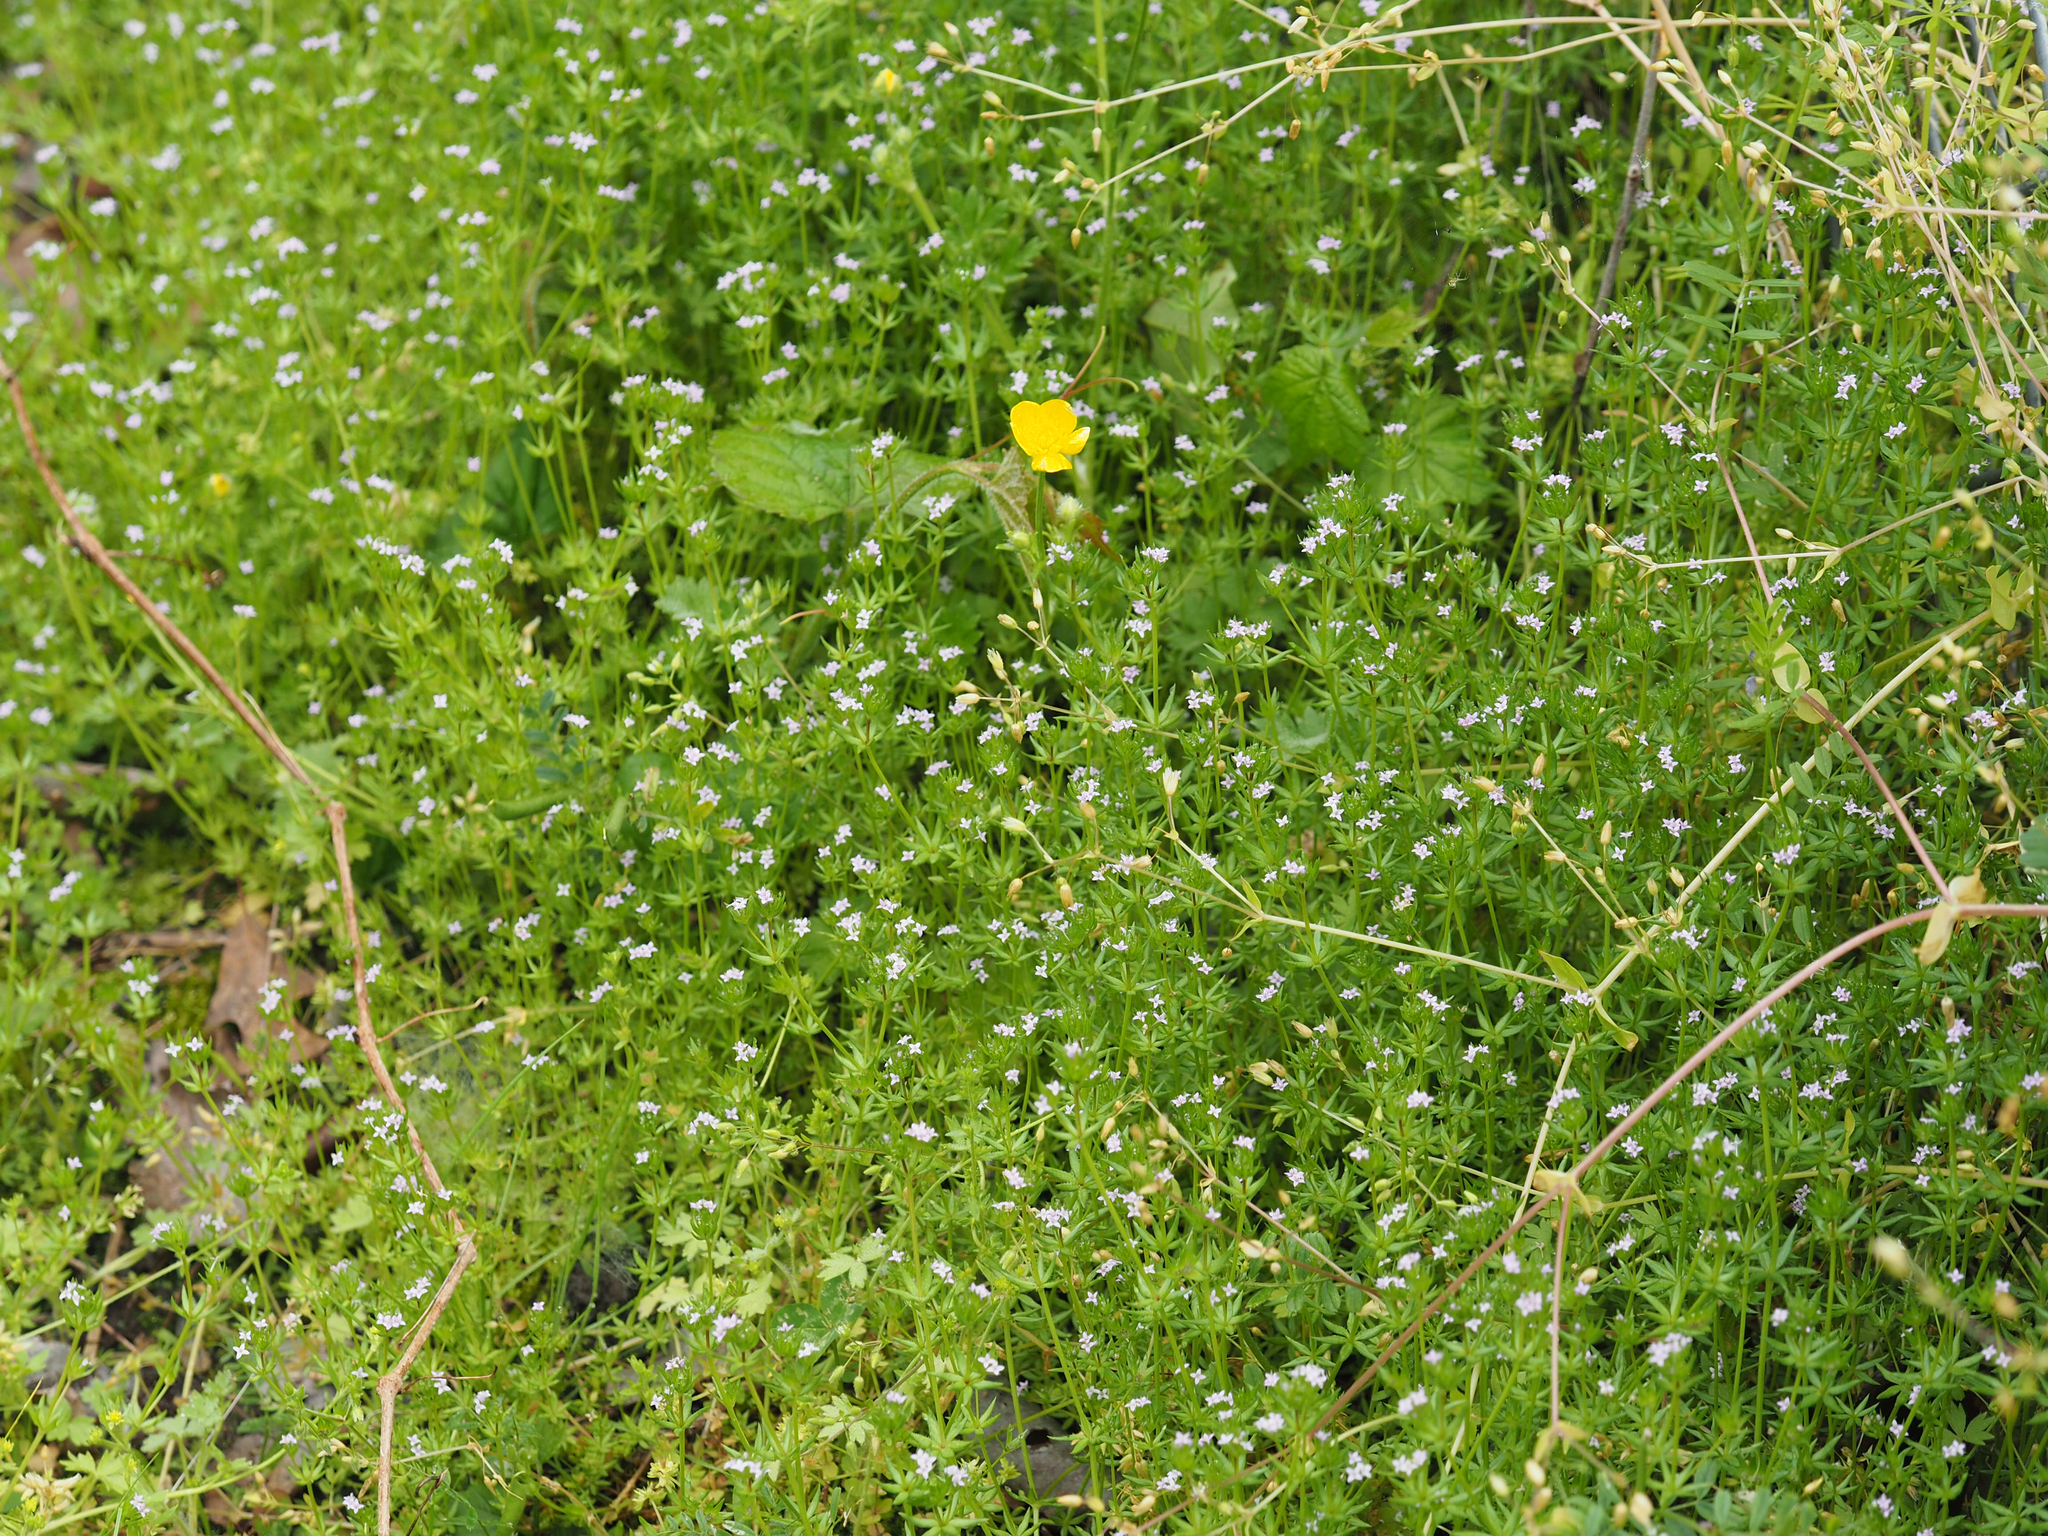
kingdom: Plantae
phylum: Tracheophyta
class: Magnoliopsida
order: Gentianales
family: Rubiaceae
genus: Sherardia
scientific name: Sherardia arvensis
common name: Field madder
